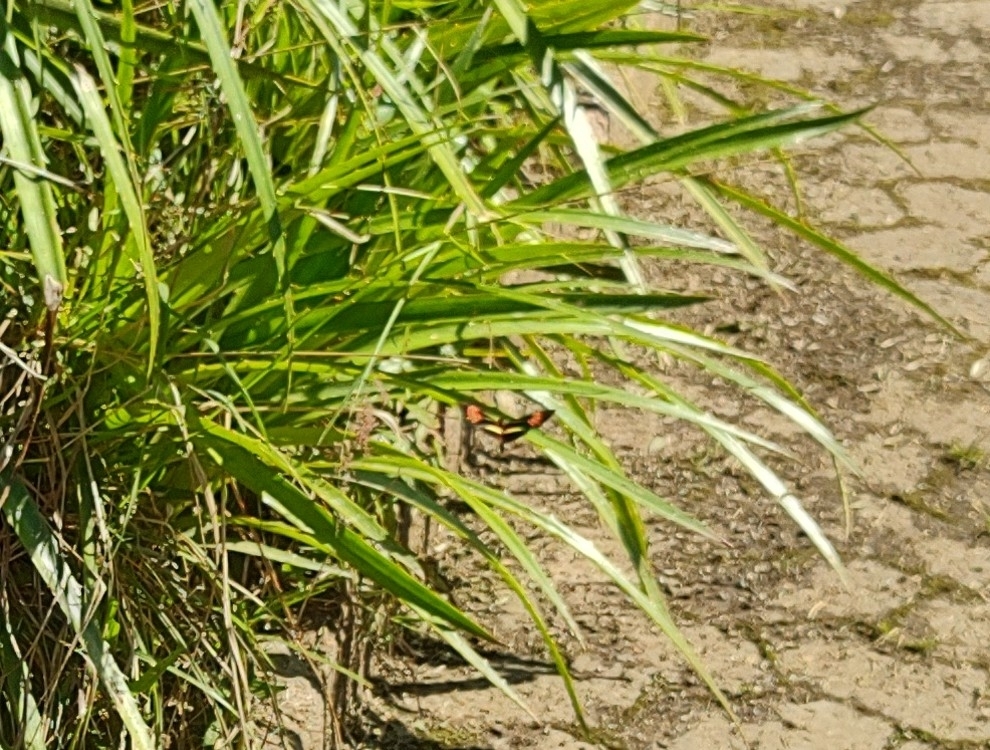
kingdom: Animalia
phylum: Arthropoda
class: Insecta
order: Lepidoptera
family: Nymphalidae
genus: Heliconius
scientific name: Heliconius erato
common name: Common patch longwing
